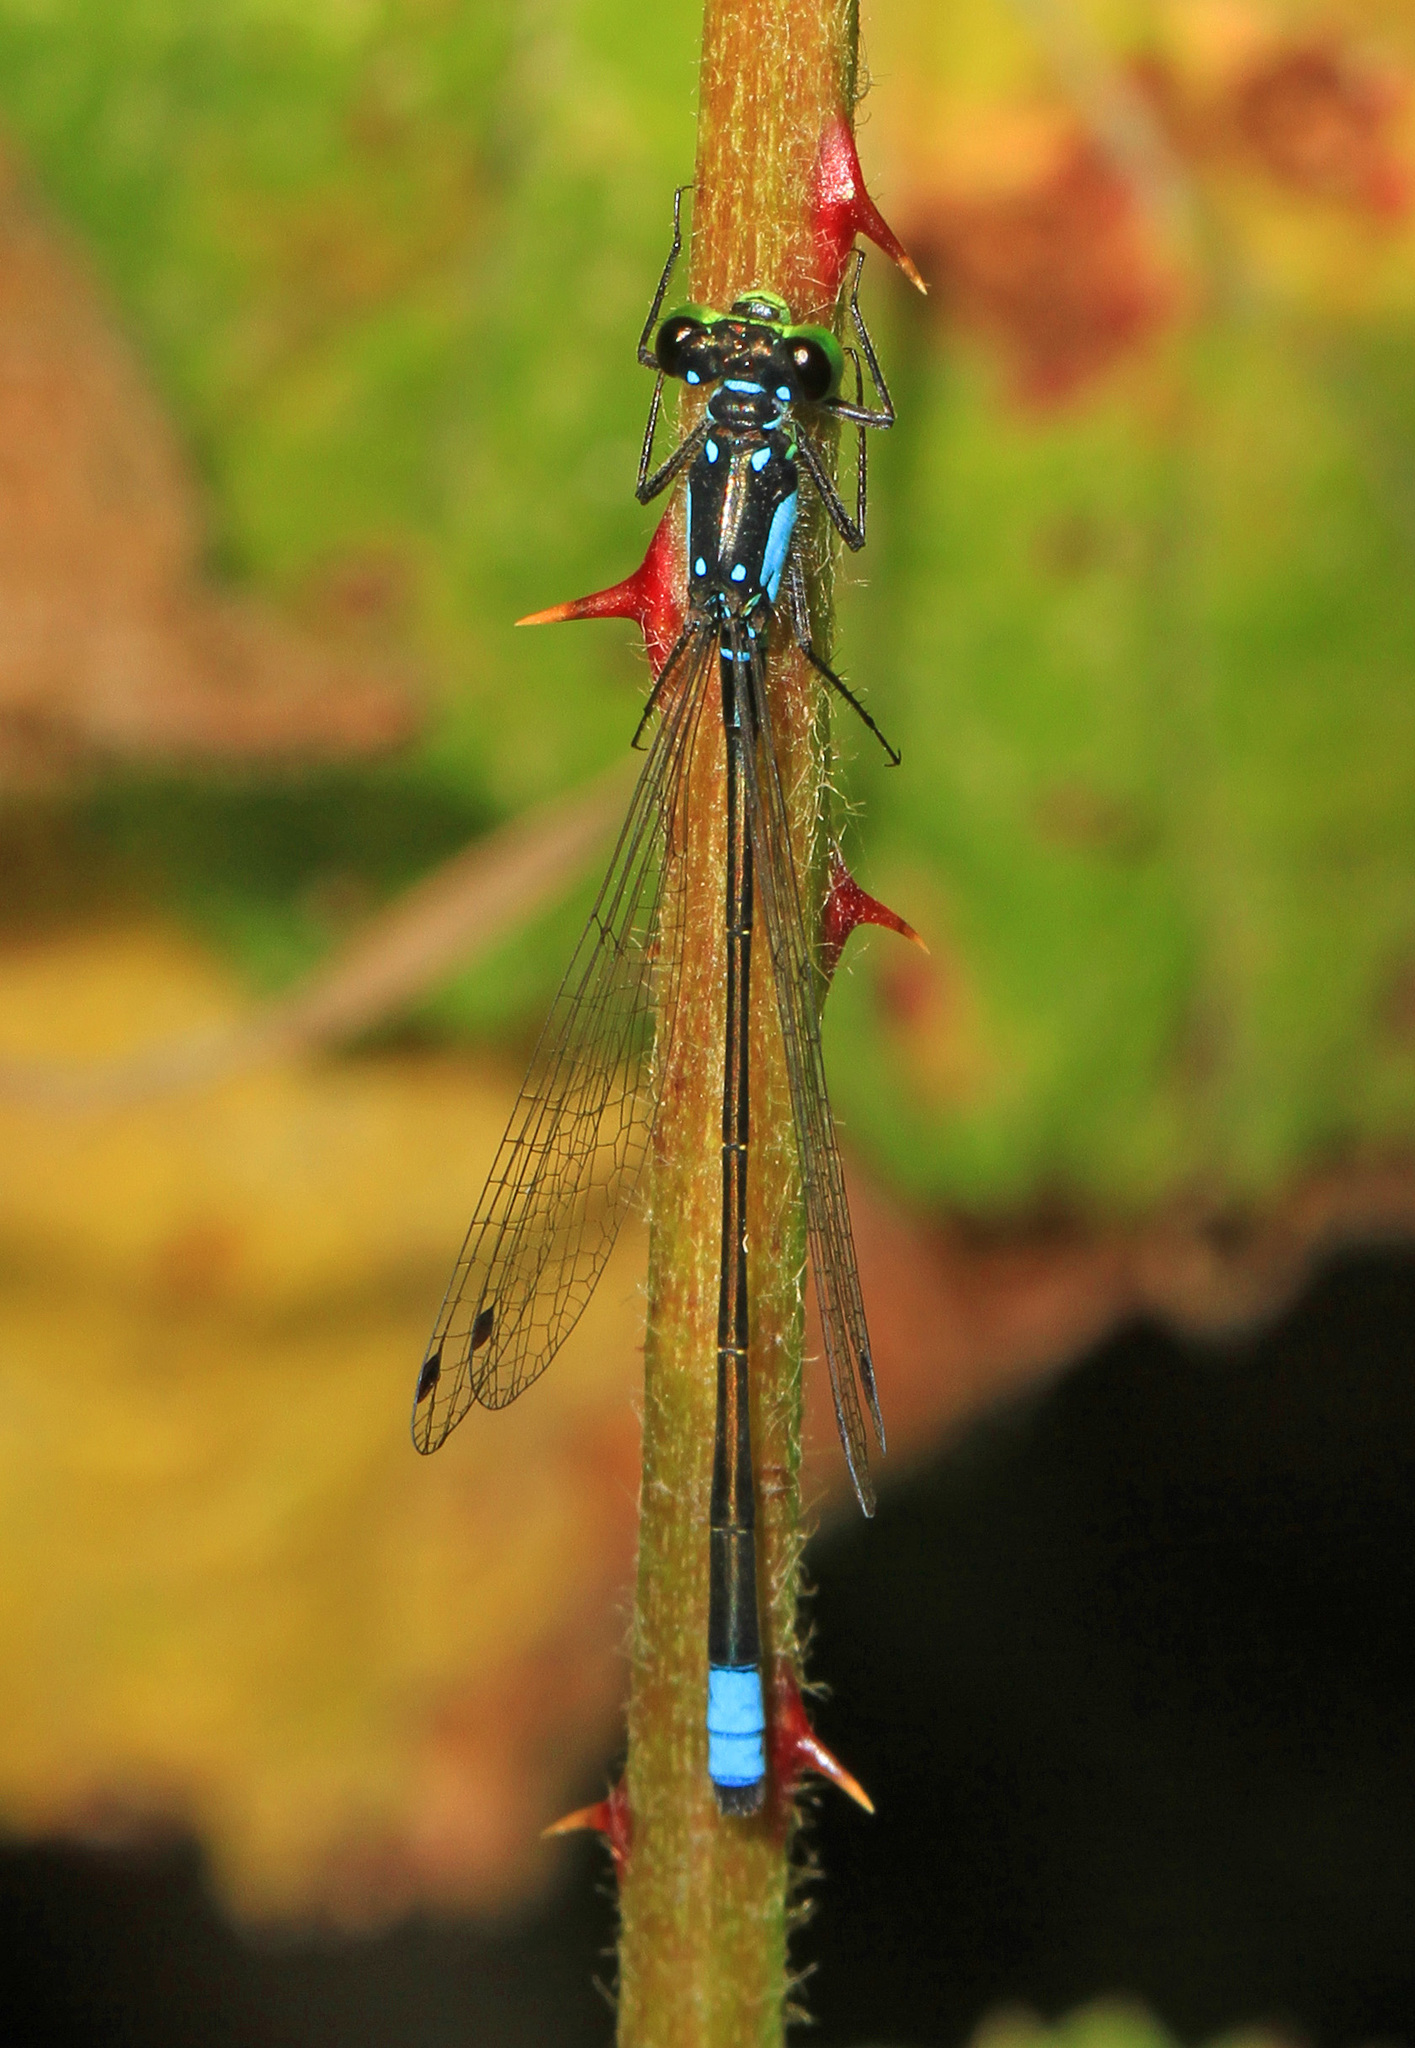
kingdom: Animalia
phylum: Arthropoda
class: Insecta
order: Odonata
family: Coenagrionidae
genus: Ischnura
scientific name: Ischnura cervula
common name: Pacific forktail
